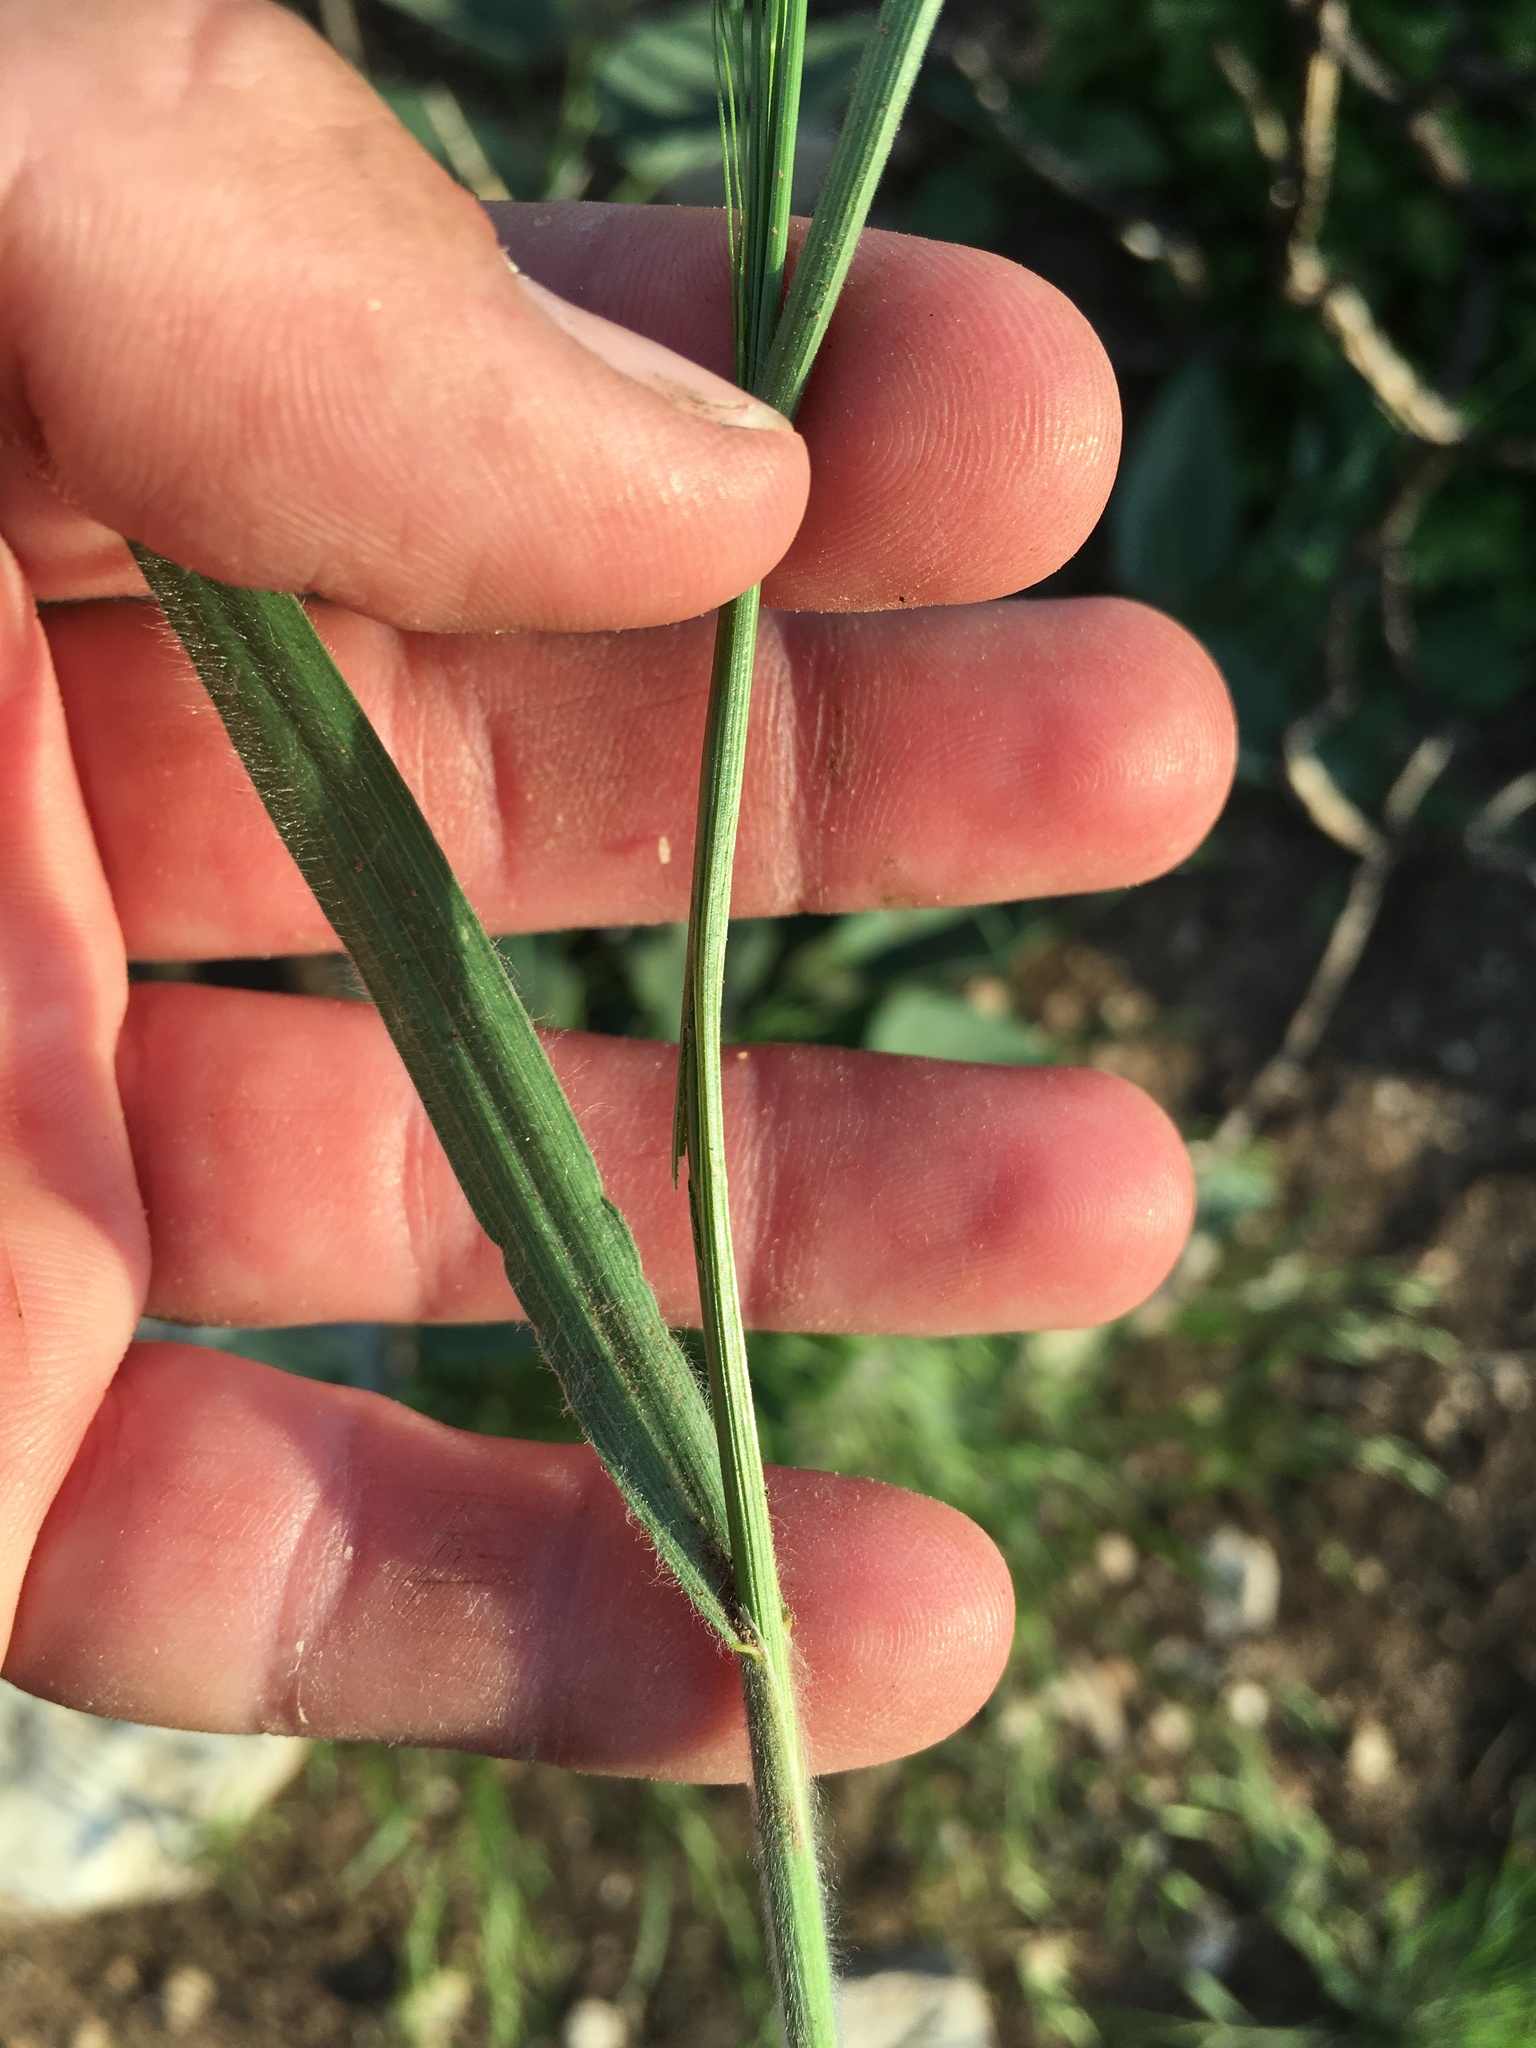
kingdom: Plantae
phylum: Tracheophyta
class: Liliopsida
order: Poales
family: Poaceae
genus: Bromus
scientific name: Bromus tectorum
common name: Cheatgrass
